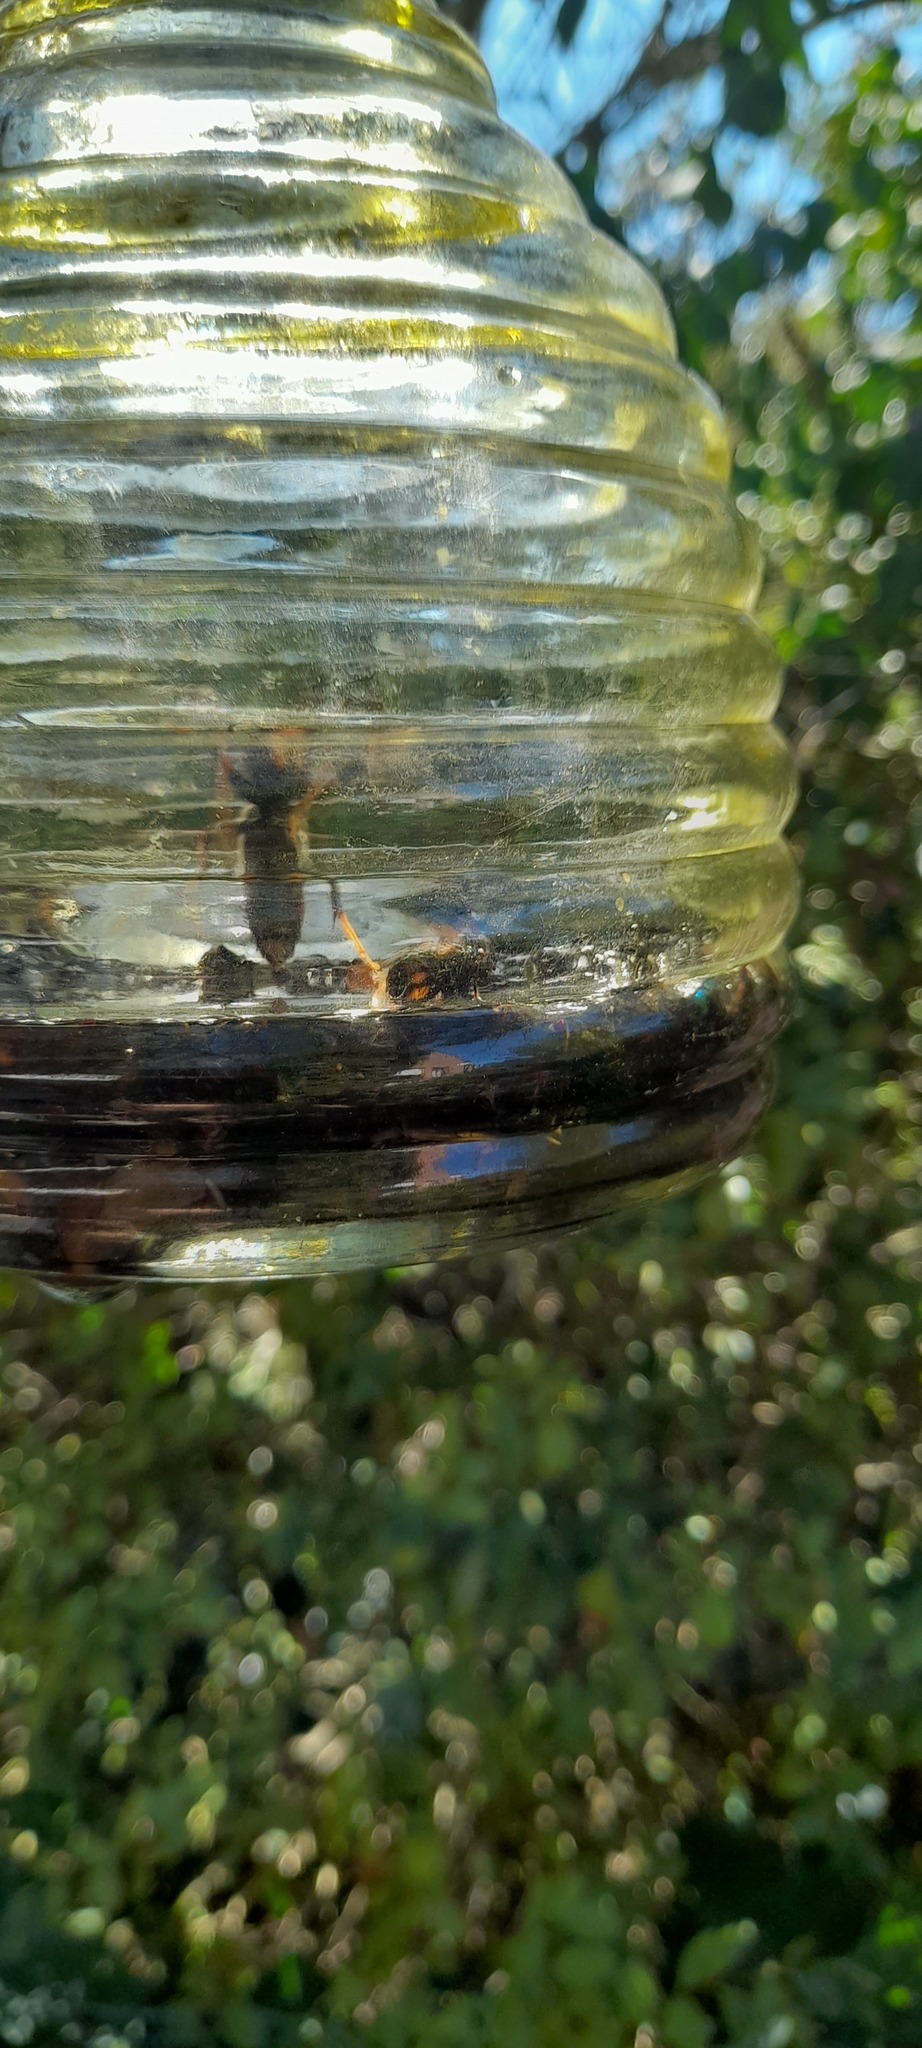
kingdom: Animalia
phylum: Arthropoda
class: Insecta
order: Hymenoptera
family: Vespidae
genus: Vespa
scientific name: Vespa velutina
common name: Asian hornet
